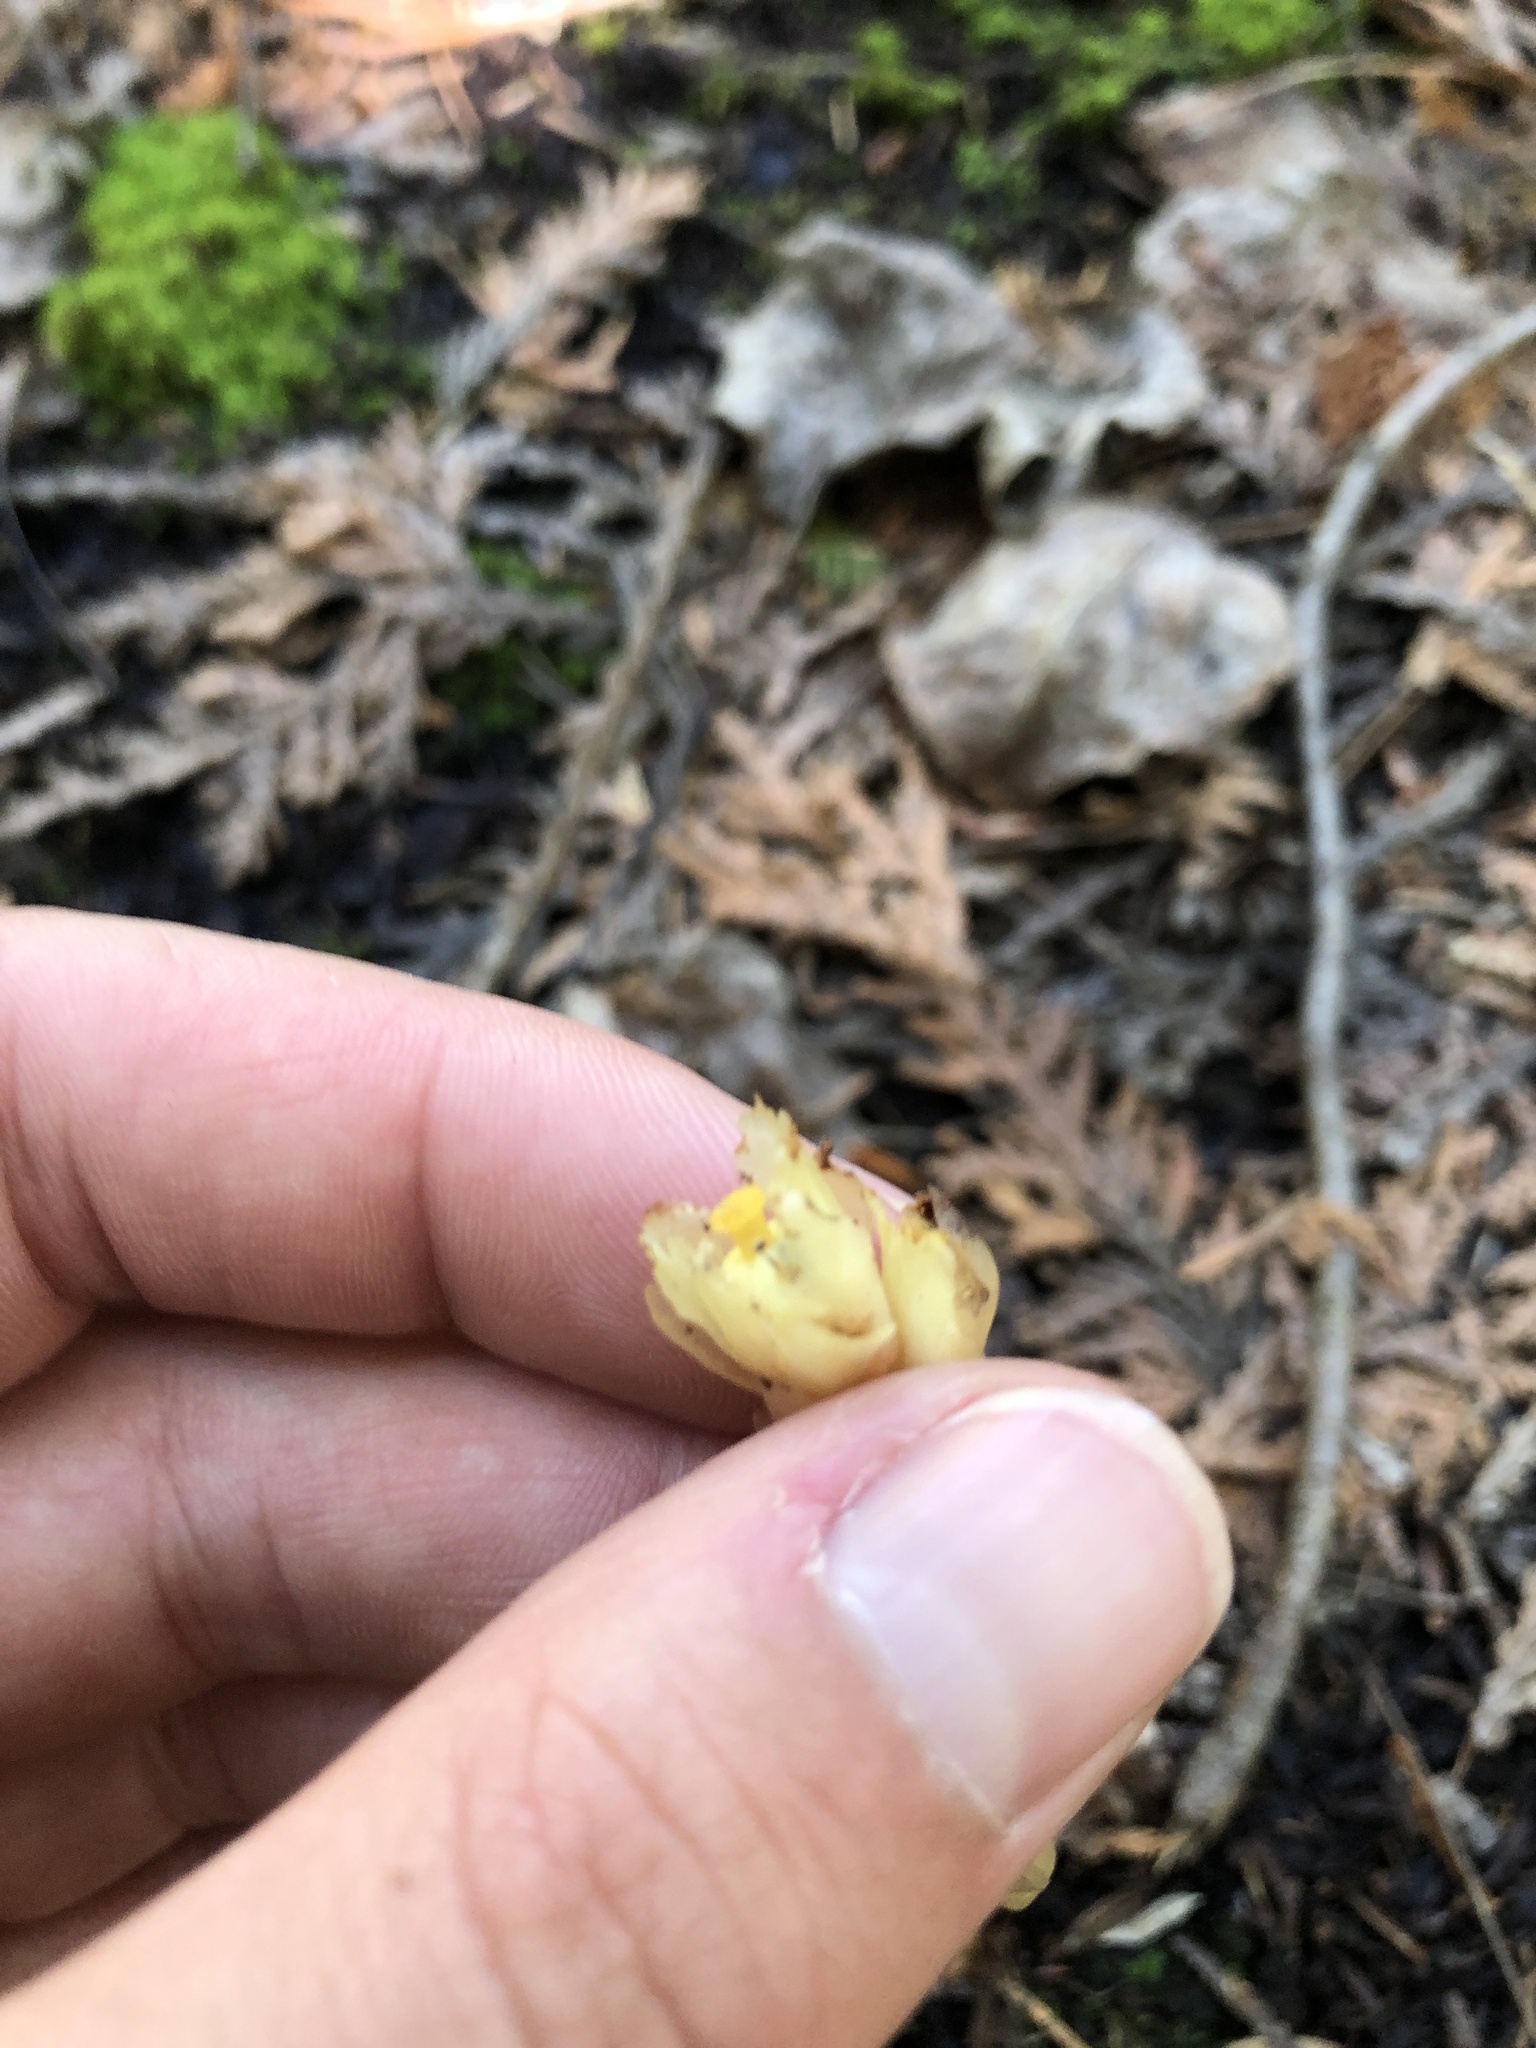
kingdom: Plantae
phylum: Tracheophyta
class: Magnoliopsida
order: Ericales
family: Ericaceae
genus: Hypopitys
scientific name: Hypopitys monotropa
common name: Yellow bird's-nest
